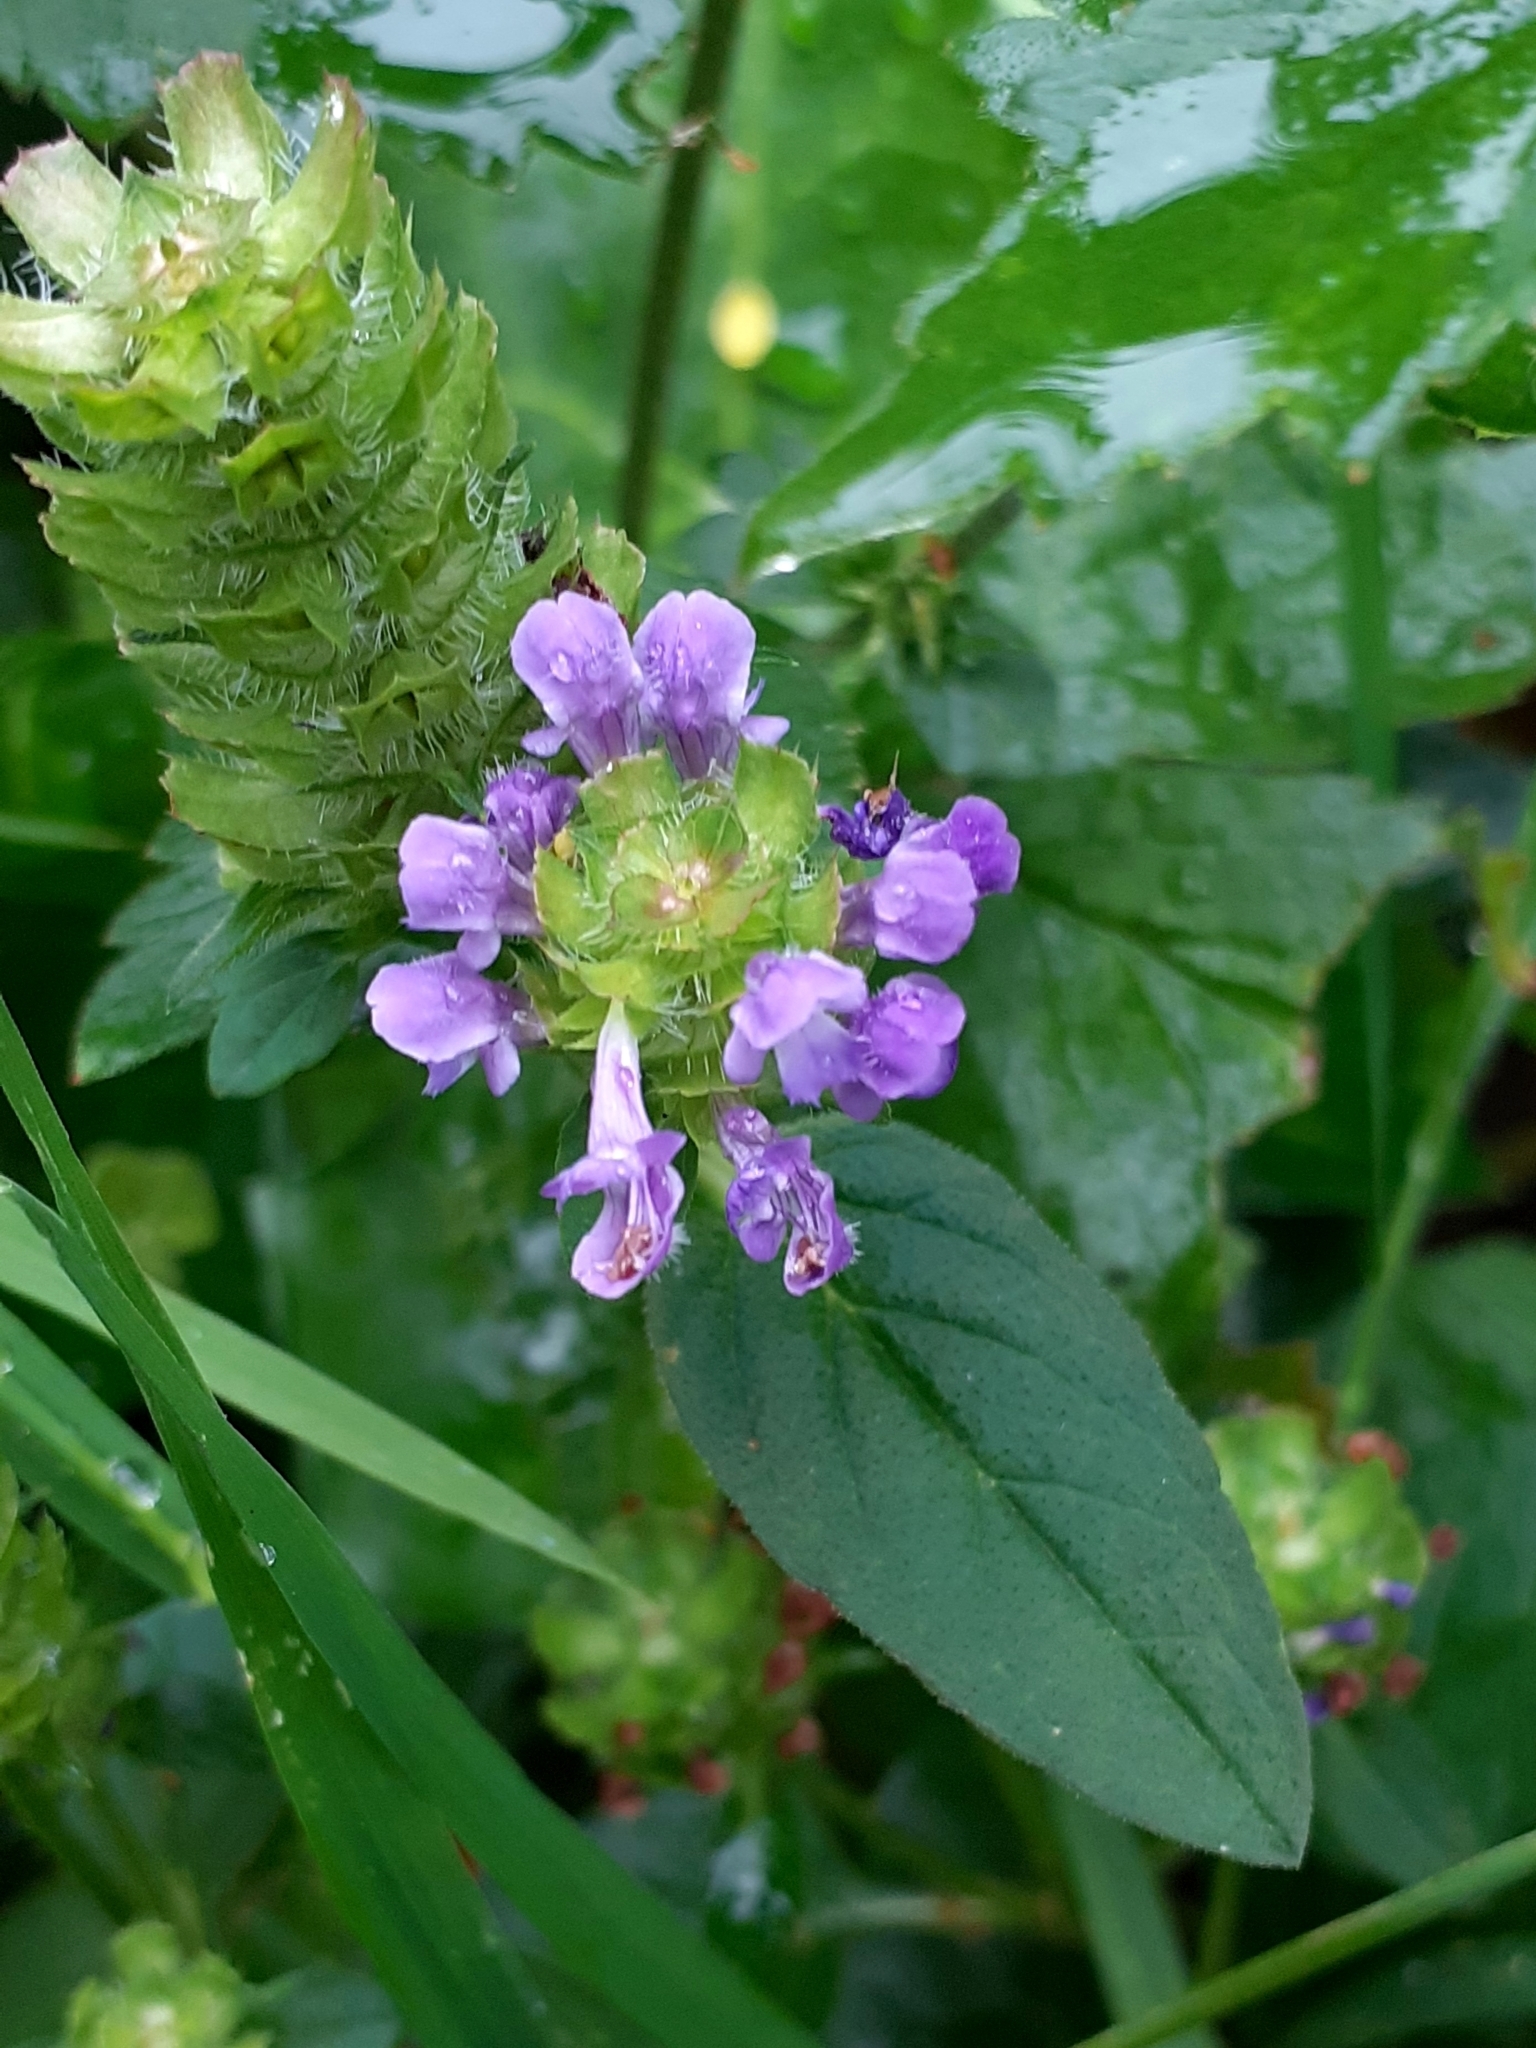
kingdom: Plantae
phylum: Tracheophyta
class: Magnoliopsida
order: Lamiales
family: Lamiaceae
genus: Prunella
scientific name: Prunella vulgaris
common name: Heal-all
